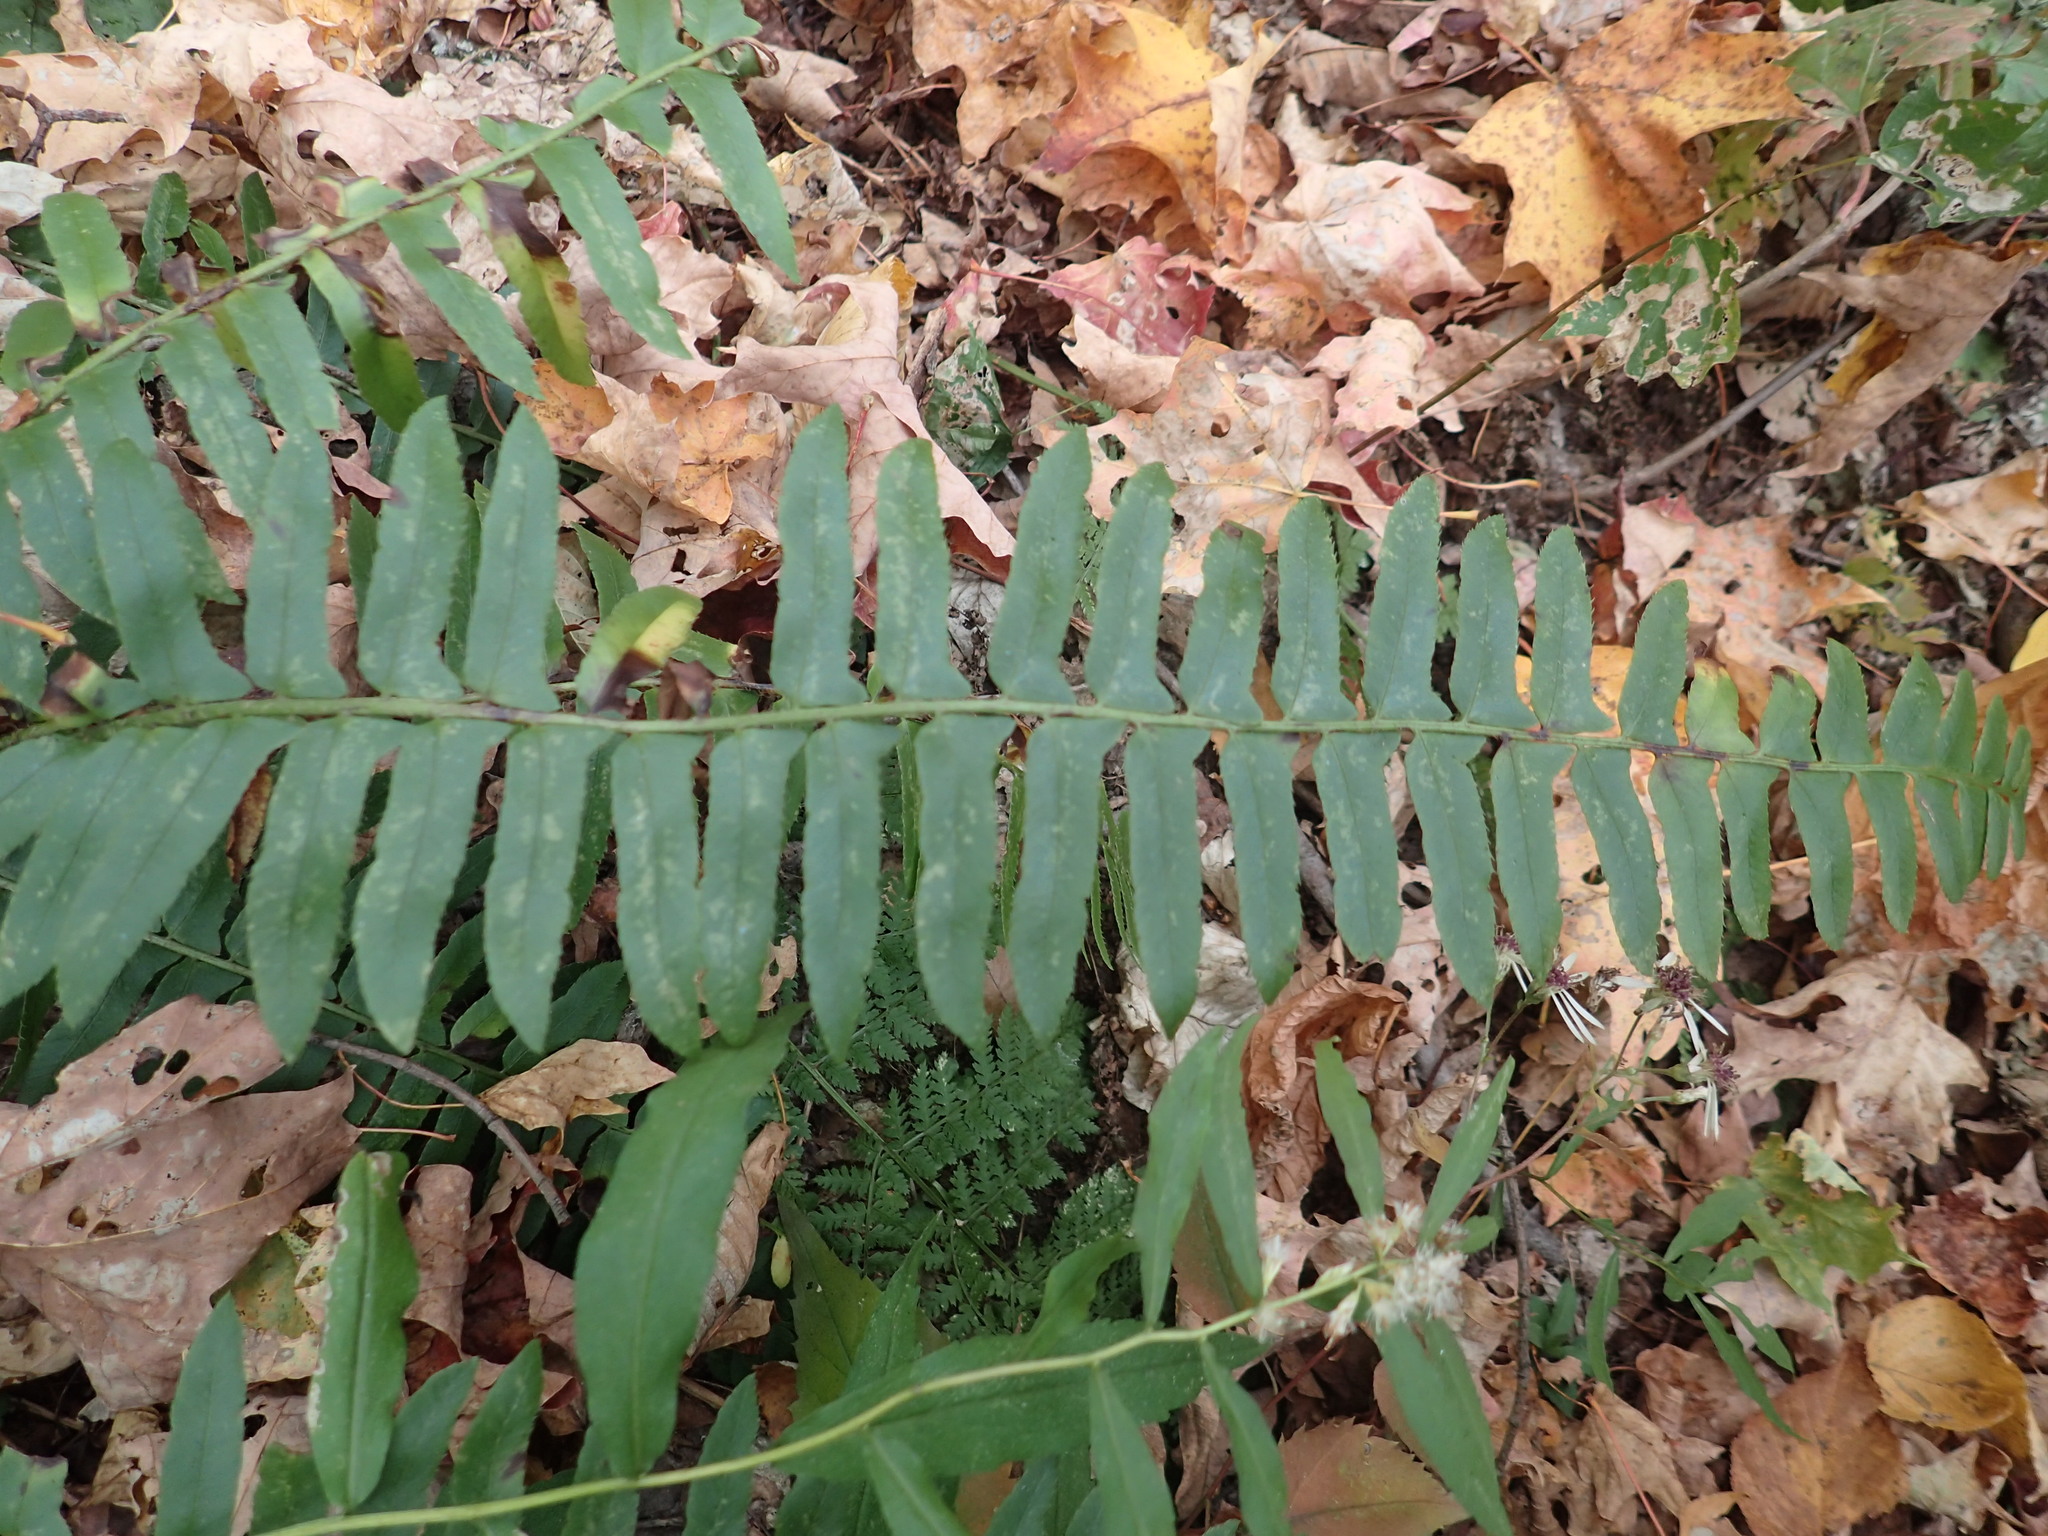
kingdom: Plantae
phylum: Tracheophyta
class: Polypodiopsida
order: Polypodiales
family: Dryopteridaceae
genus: Polystichum
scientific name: Polystichum acrostichoides
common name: Christmas fern
